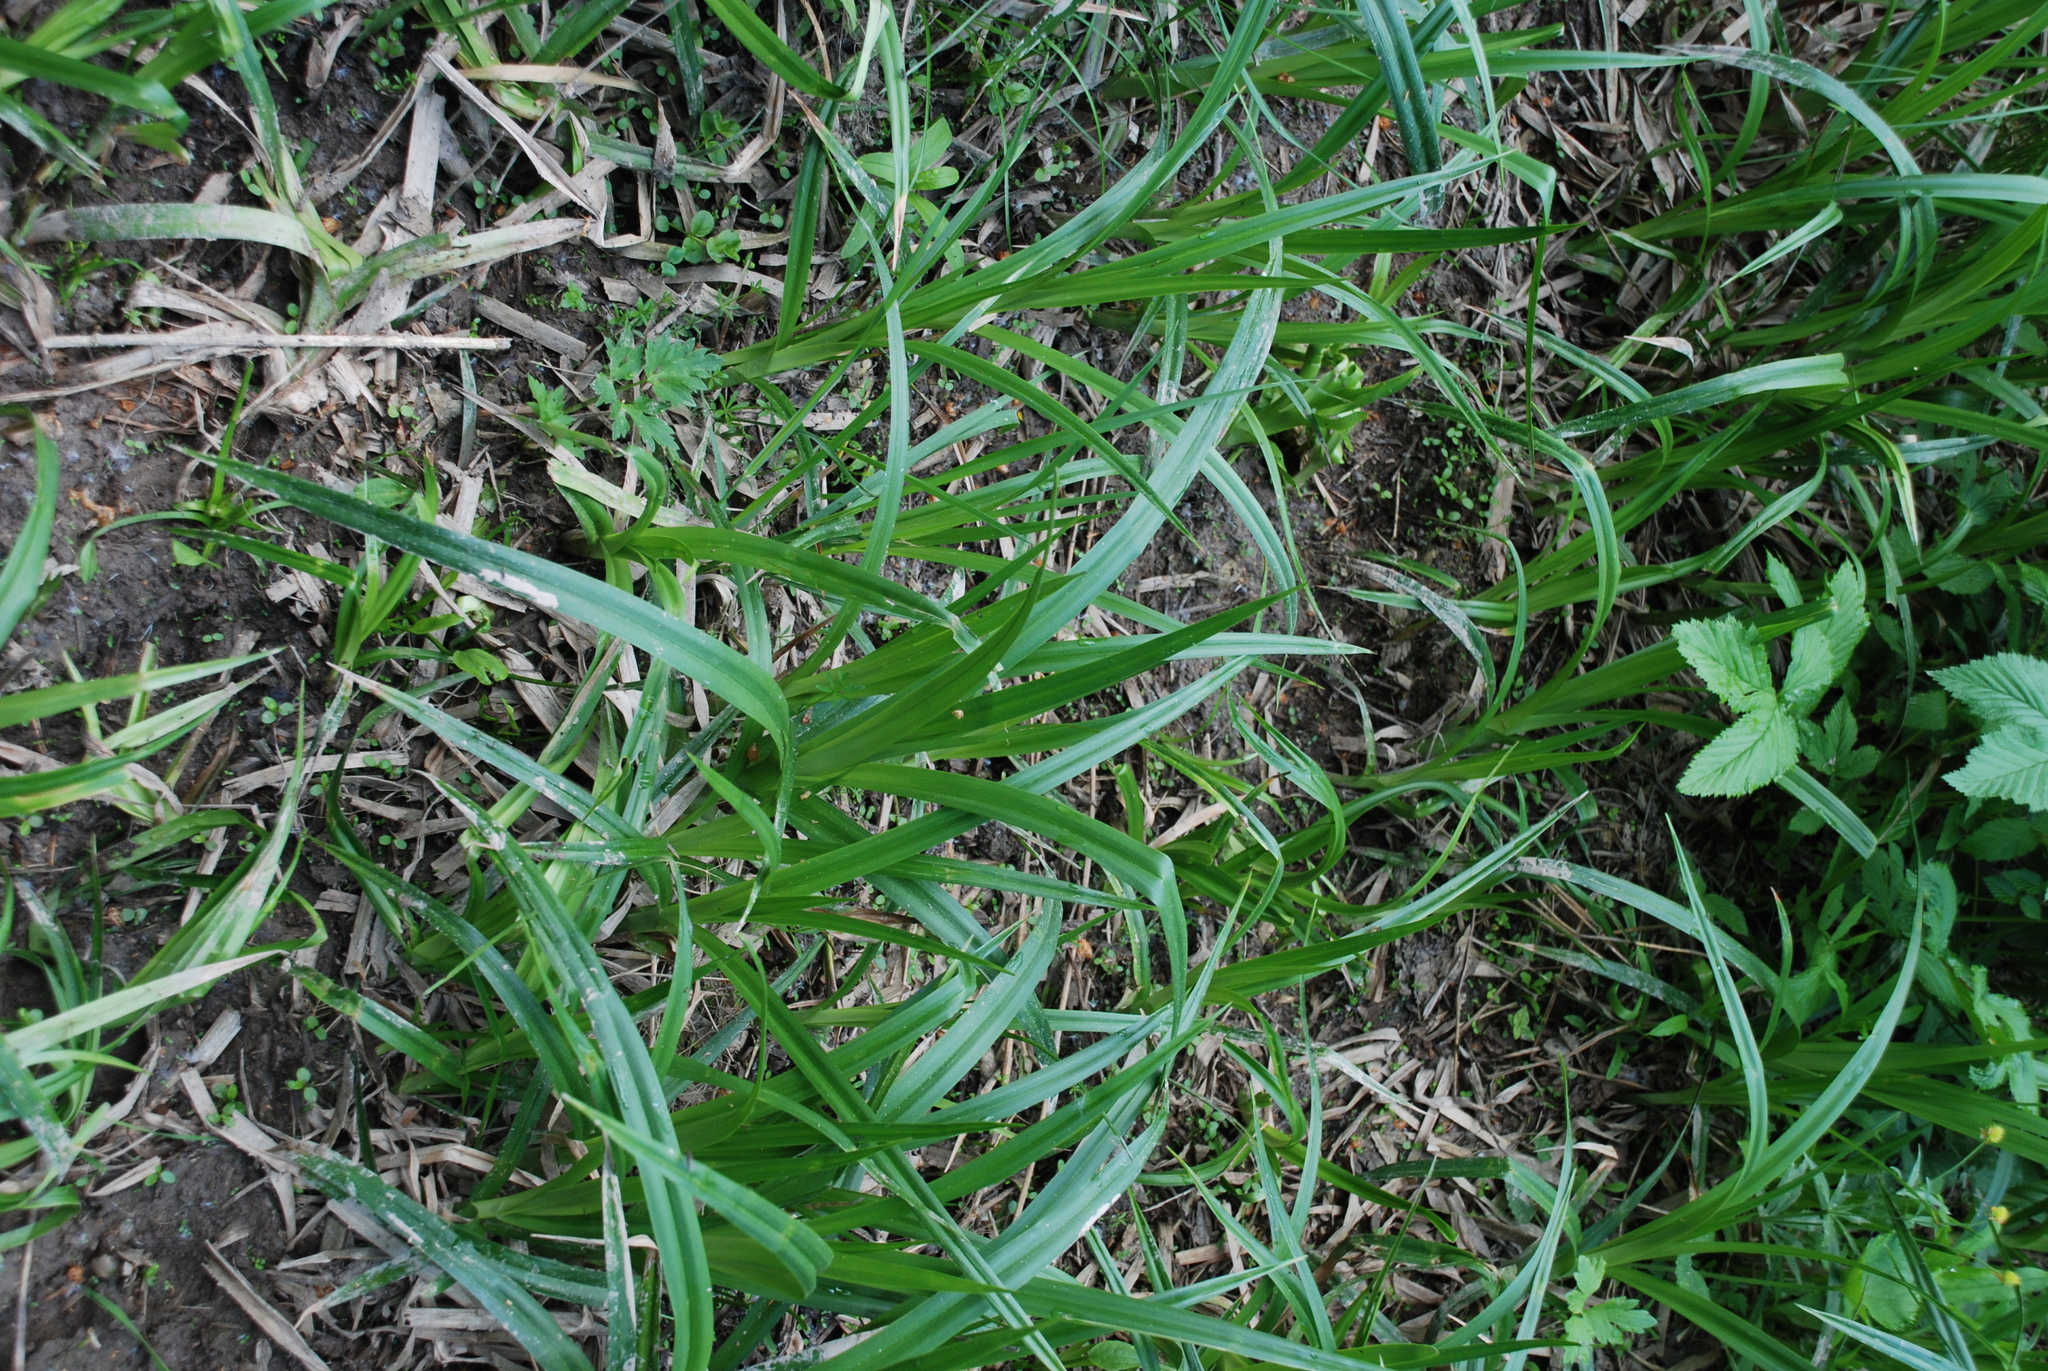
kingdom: Plantae
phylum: Tracheophyta
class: Liliopsida
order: Poales
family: Cyperaceae
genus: Scirpus
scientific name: Scirpus sylvaticus
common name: Wood club-rush
